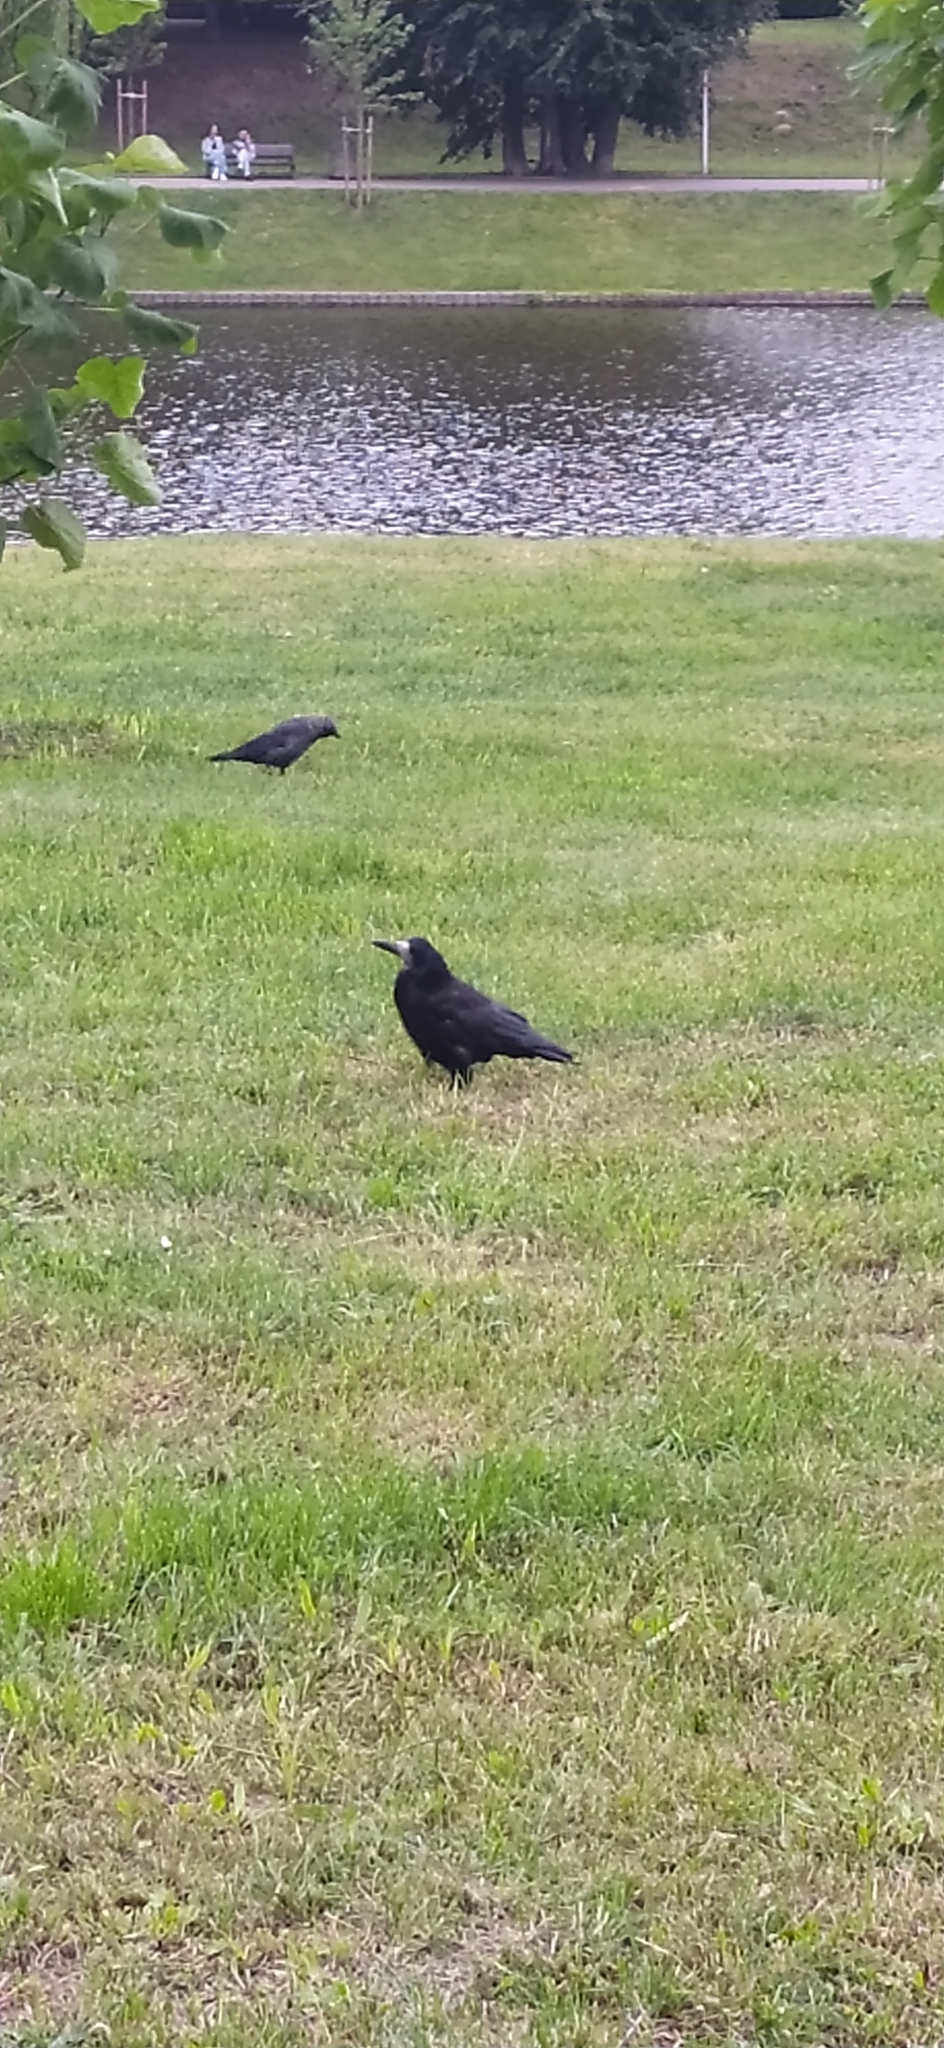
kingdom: Animalia
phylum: Chordata
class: Aves
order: Passeriformes
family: Corvidae
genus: Corvus
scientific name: Corvus frugilegus
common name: Rook
